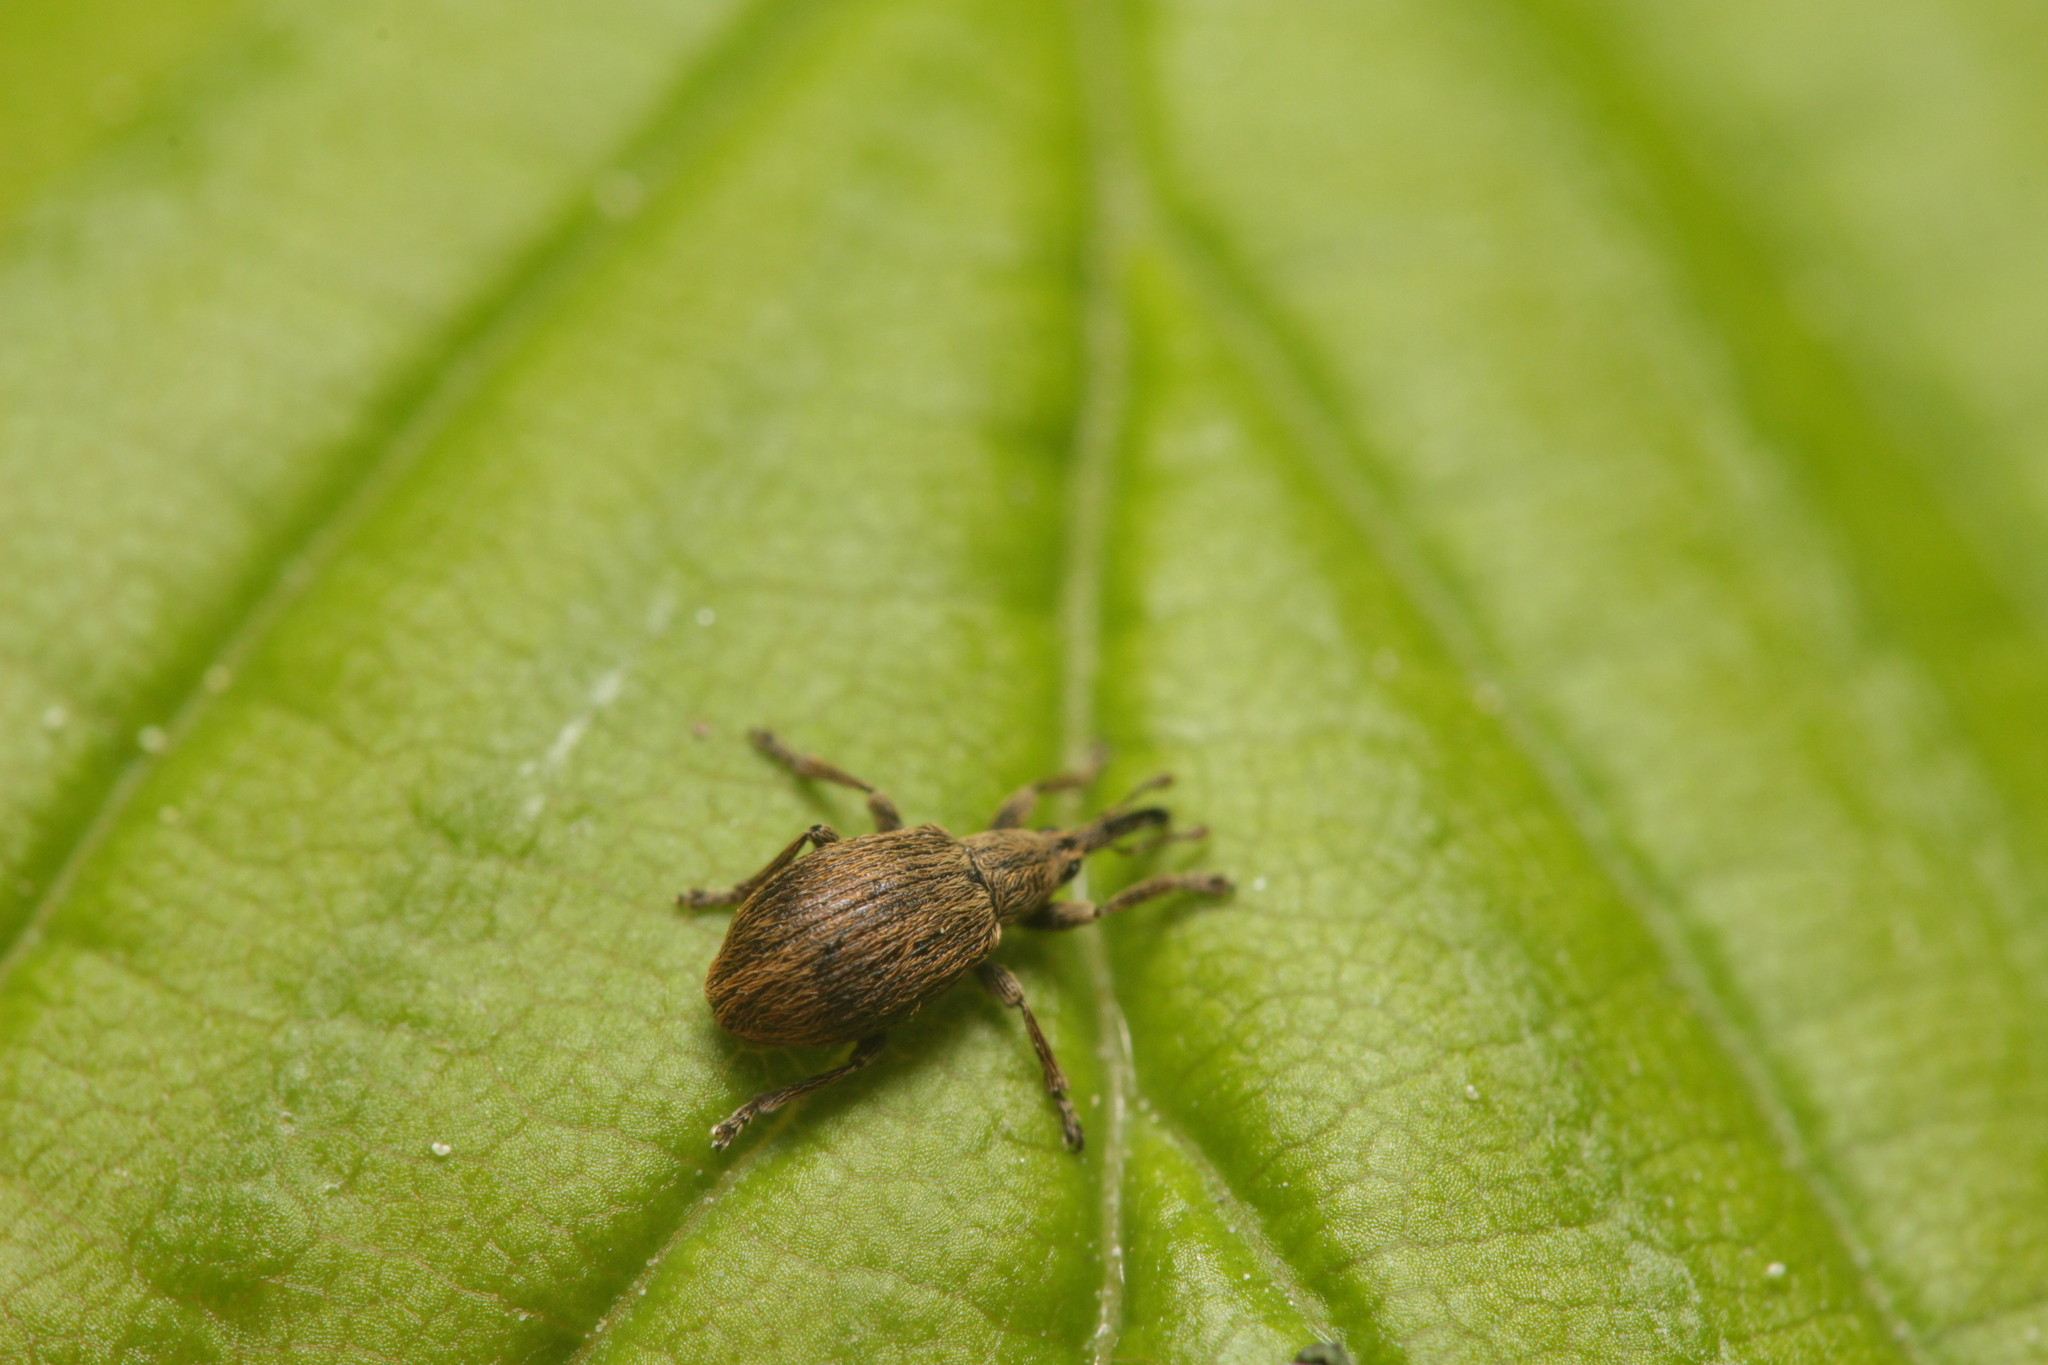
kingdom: Animalia
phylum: Arthropoda
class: Insecta
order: Coleoptera
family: Apionidae
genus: Trichopterapion
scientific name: Trichopterapion holosericeum
